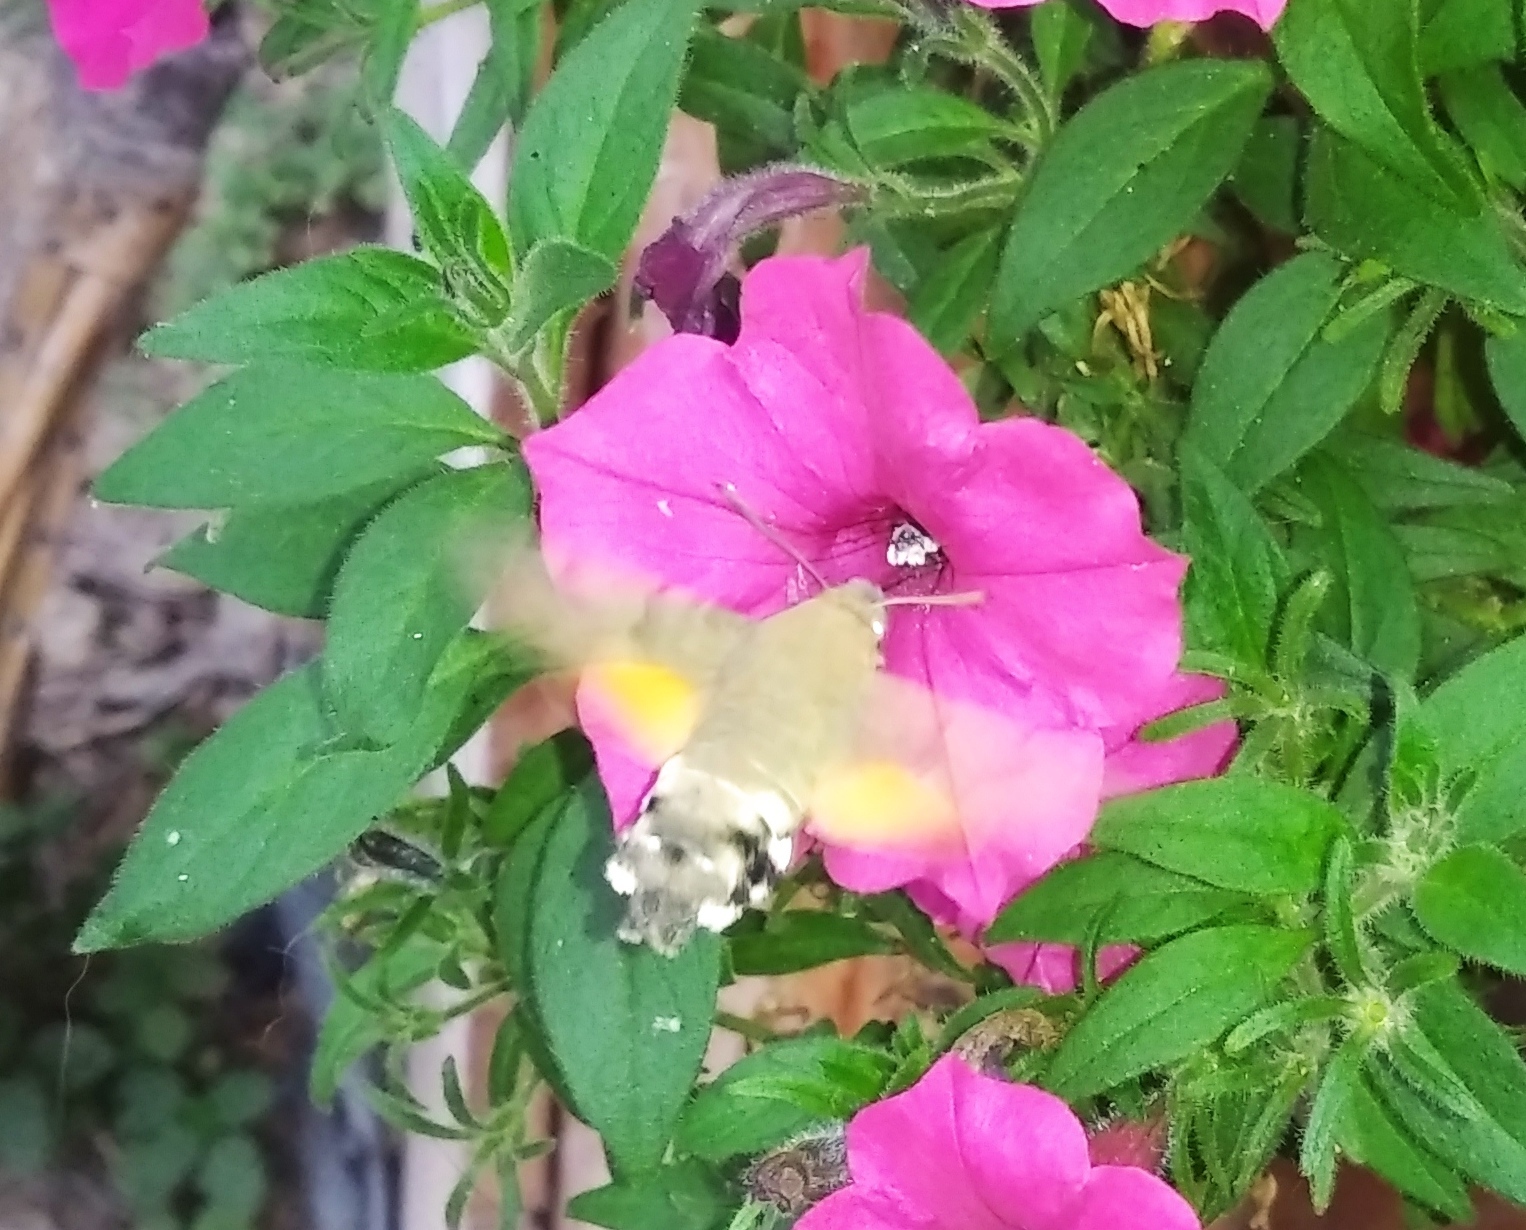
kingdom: Animalia
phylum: Arthropoda
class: Insecta
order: Lepidoptera
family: Sphingidae
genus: Macroglossum
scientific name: Macroglossum stellatarum
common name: Humming-bird hawk-moth
